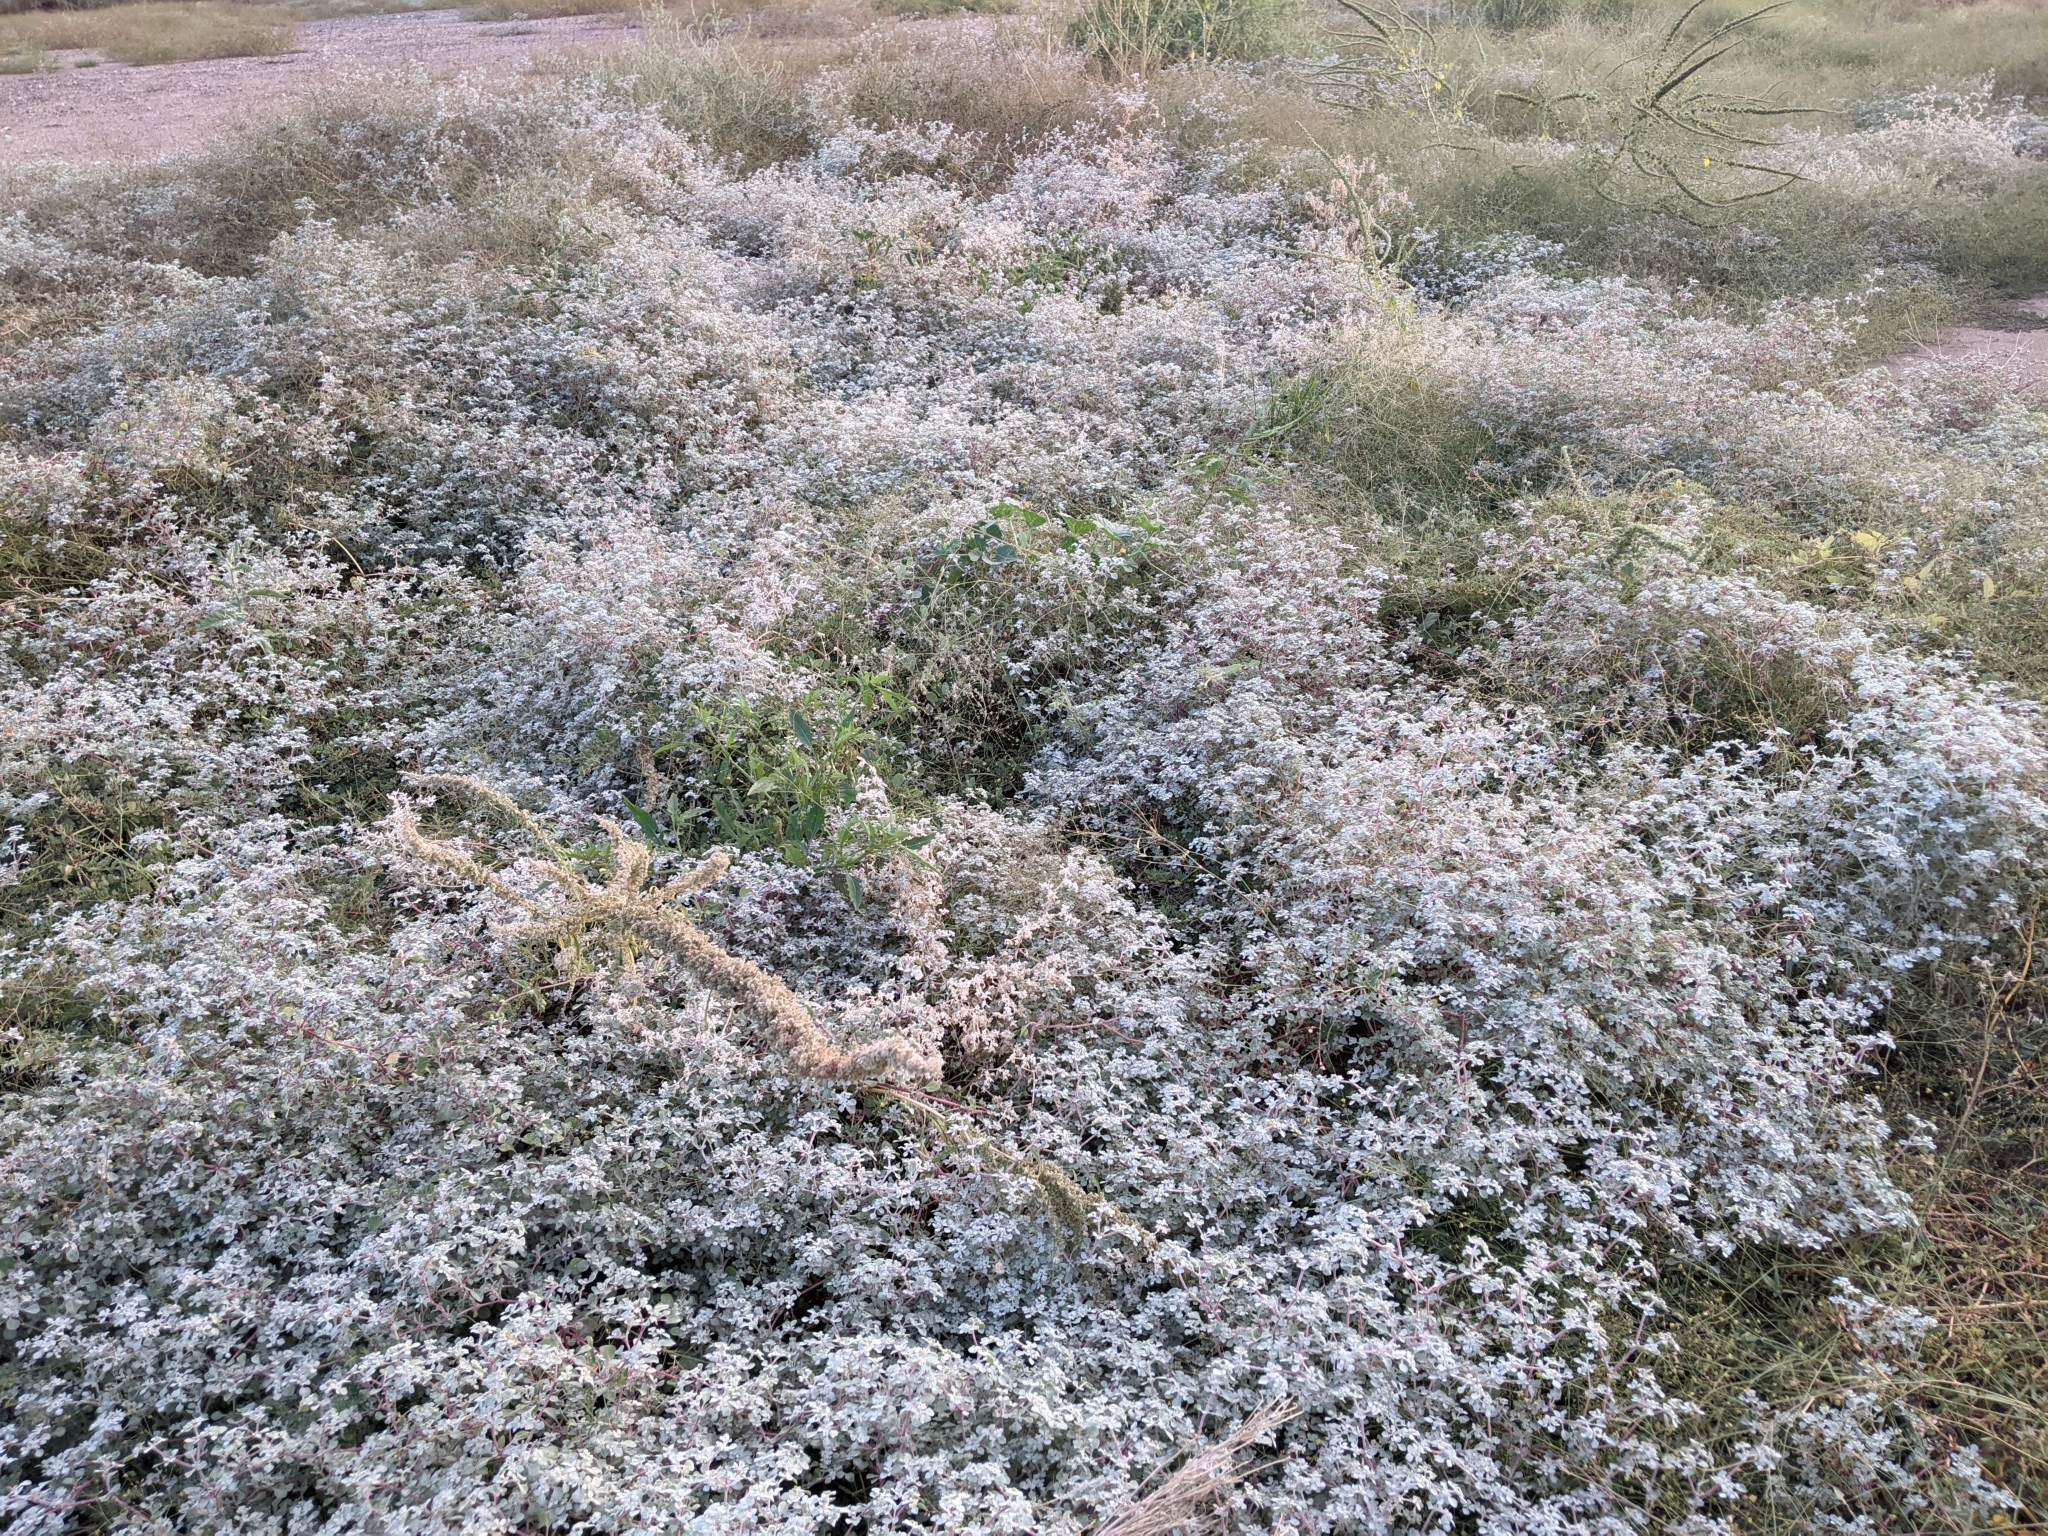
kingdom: Plantae
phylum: Tracheophyta
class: Magnoliopsida
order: Caryophyllales
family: Amaranthaceae
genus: Tidestromia
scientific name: Tidestromia lanuginosa
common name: Woolly tidestromia
